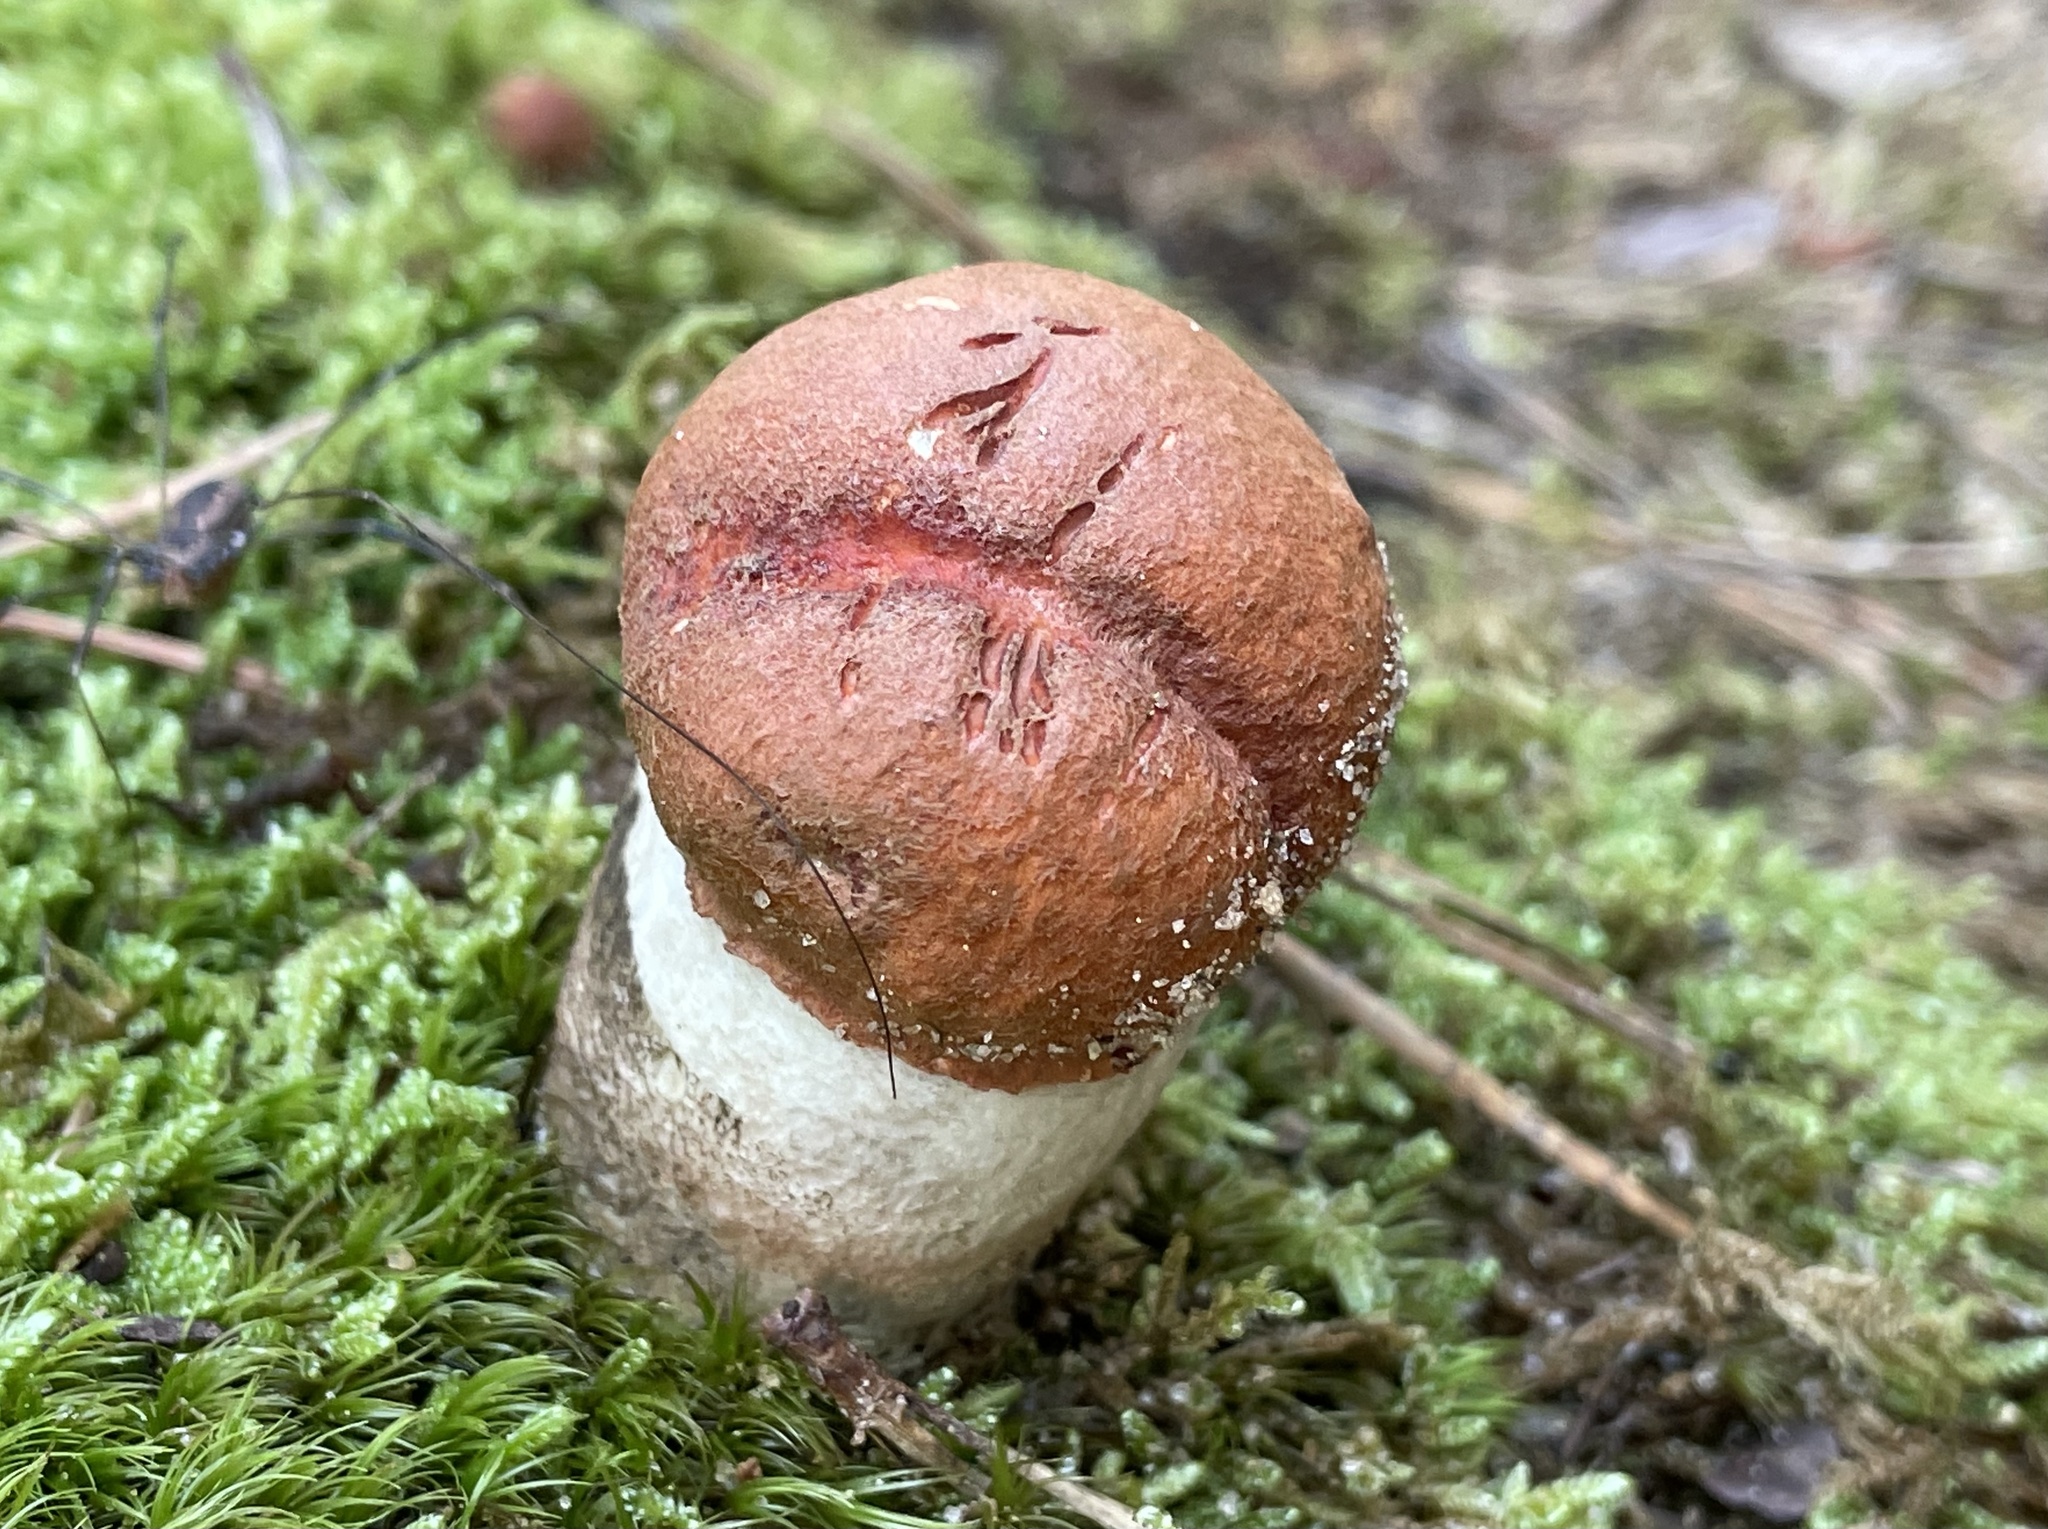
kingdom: Fungi
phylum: Basidiomycota
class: Agaricomycetes
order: Boletales
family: Boletaceae
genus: Leccinum
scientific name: Leccinum vulpinum
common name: Foxy bolete
